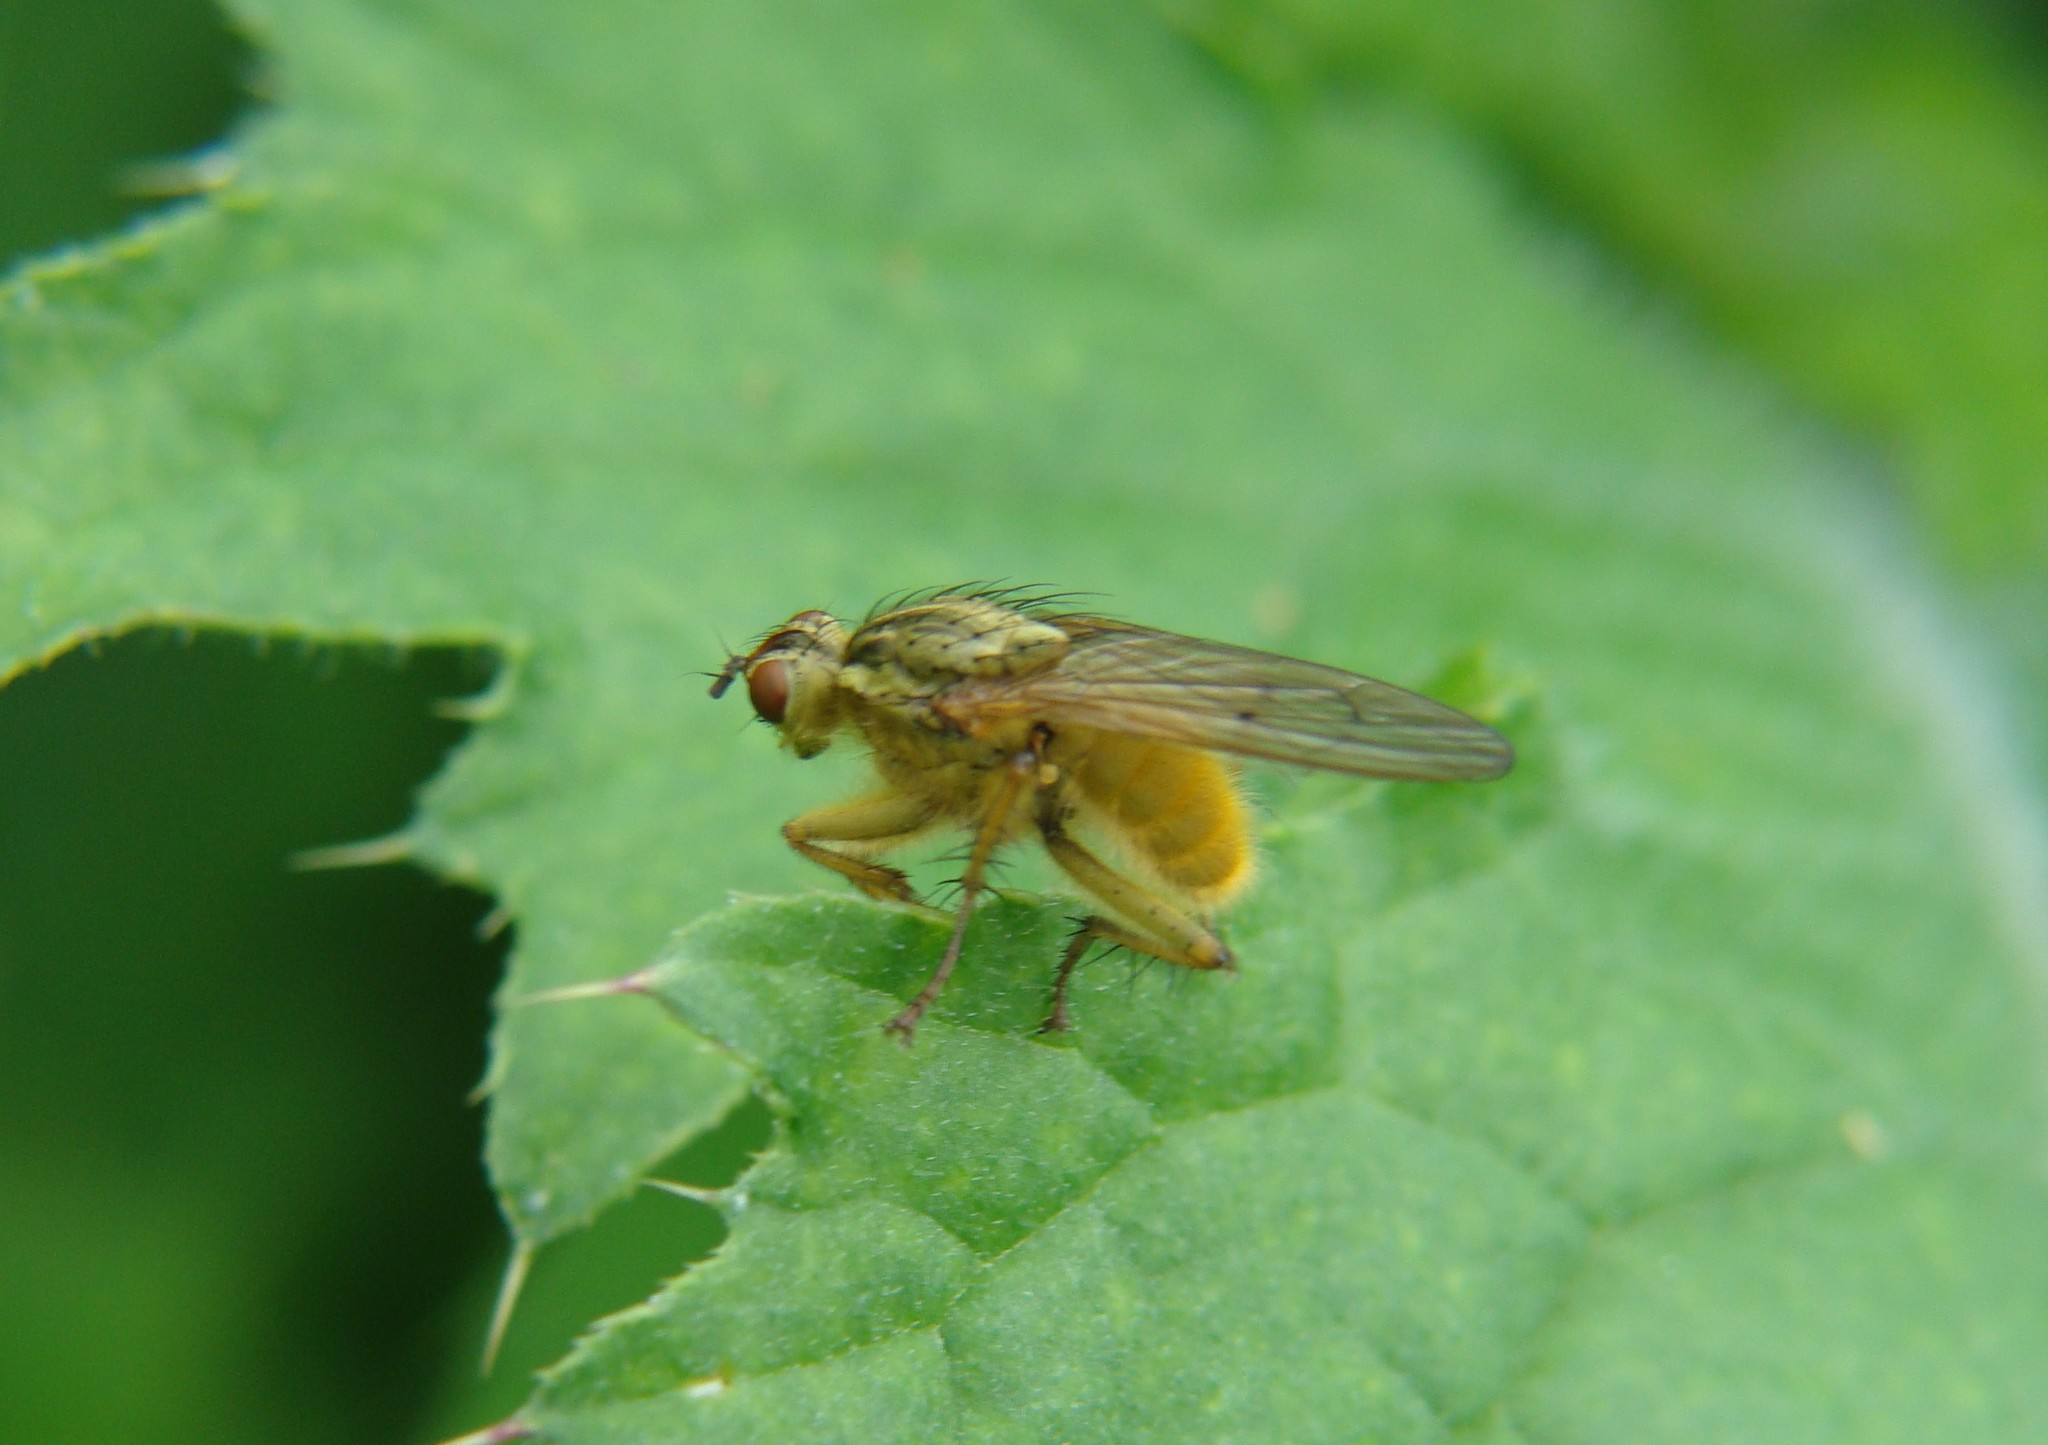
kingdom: Animalia
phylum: Arthropoda
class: Insecta
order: Diptera
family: Scathophagidae
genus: Scathophaga
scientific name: Scathophaga stercoraria
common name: Yellow dung fly
